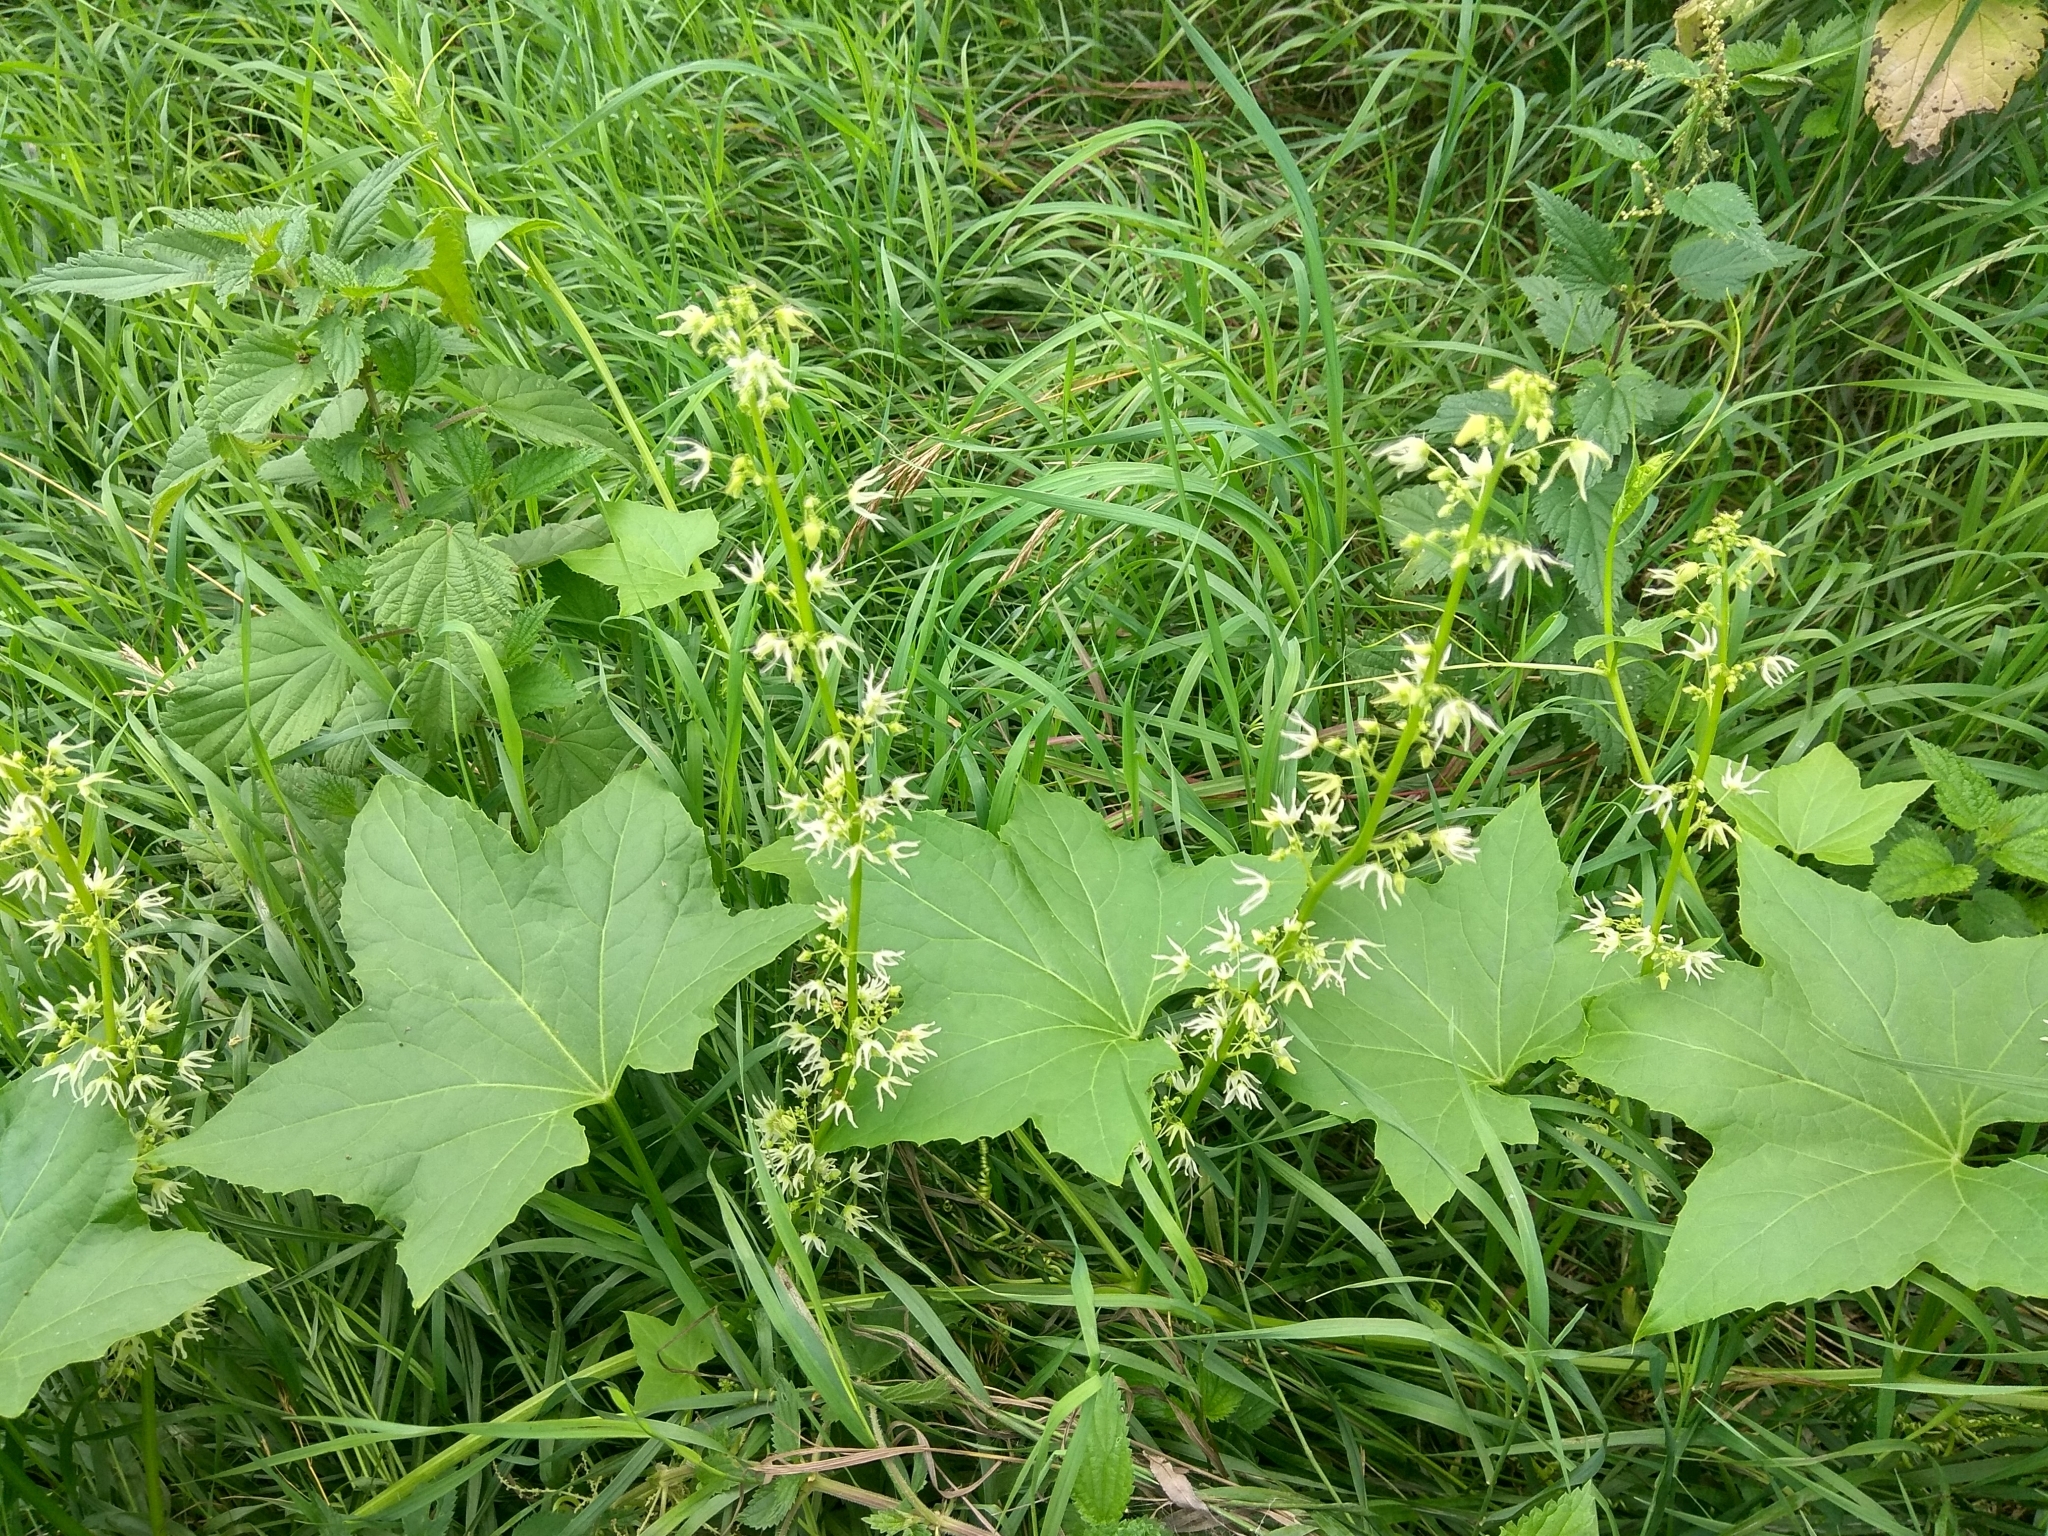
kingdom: Plantae
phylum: Tracheophyta
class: Magnoliopsida
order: Cucurbitales
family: Cucurbitaceae
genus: Echinocystis
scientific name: Echinocystis lobata
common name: Wild cucumber
